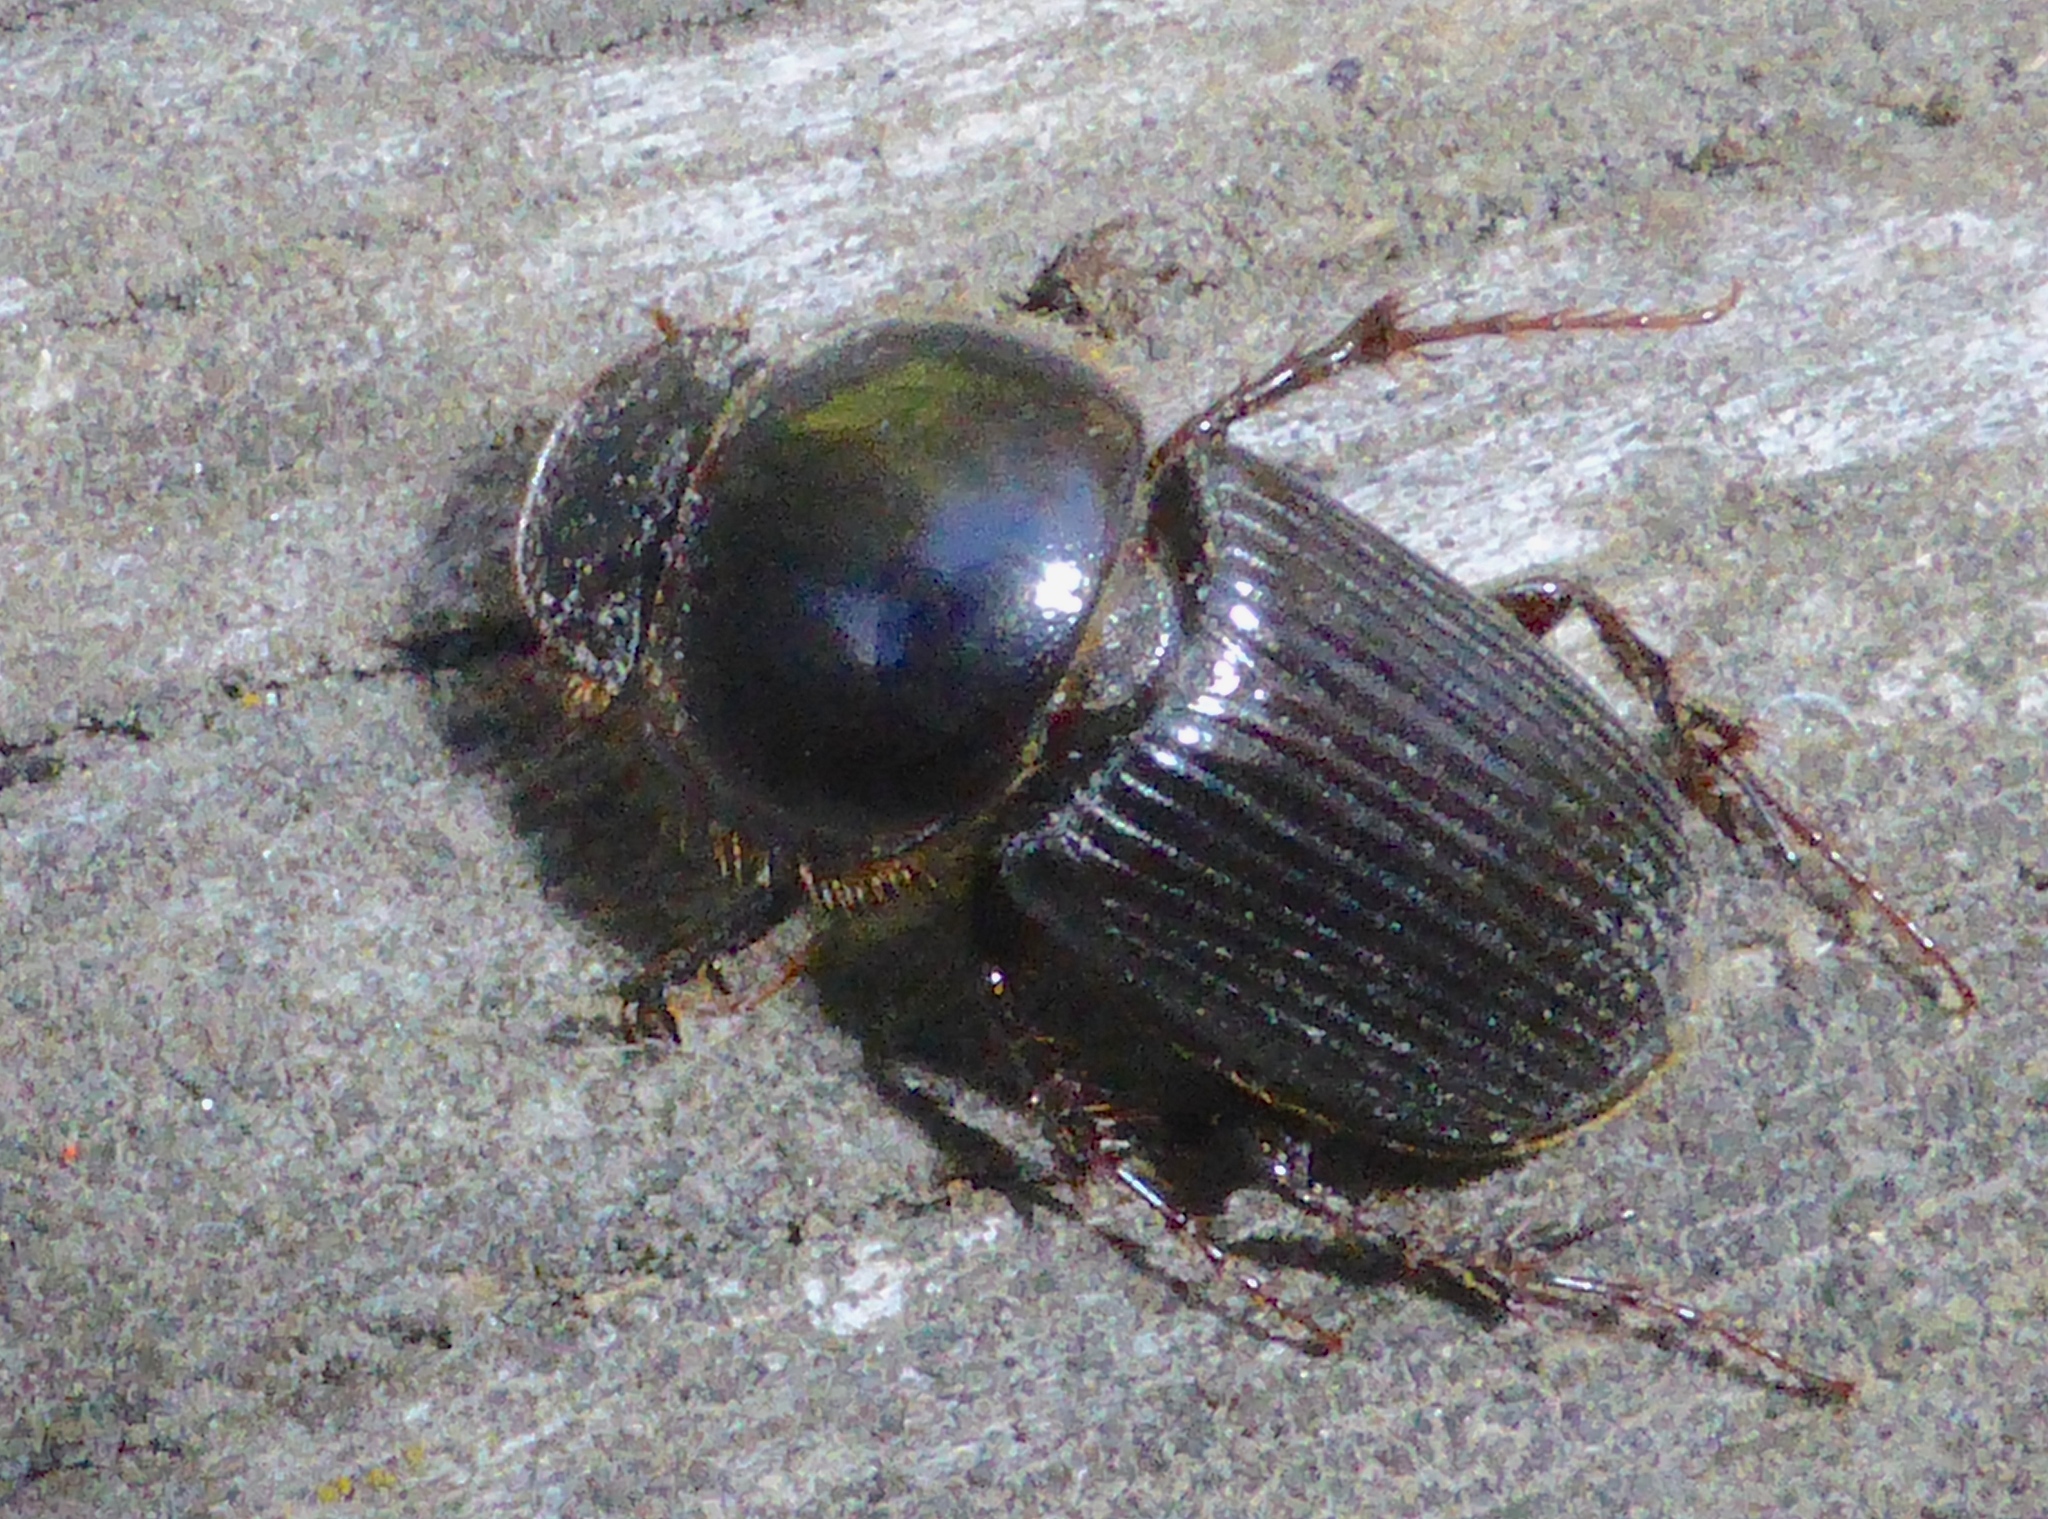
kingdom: Animalia
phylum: Arthropoda
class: Insecta
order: Coleoptera
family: Scarabaeidae
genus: Acrossidius
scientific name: Acrossidius tasmaniae
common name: Black-headed pasture cockchafer
